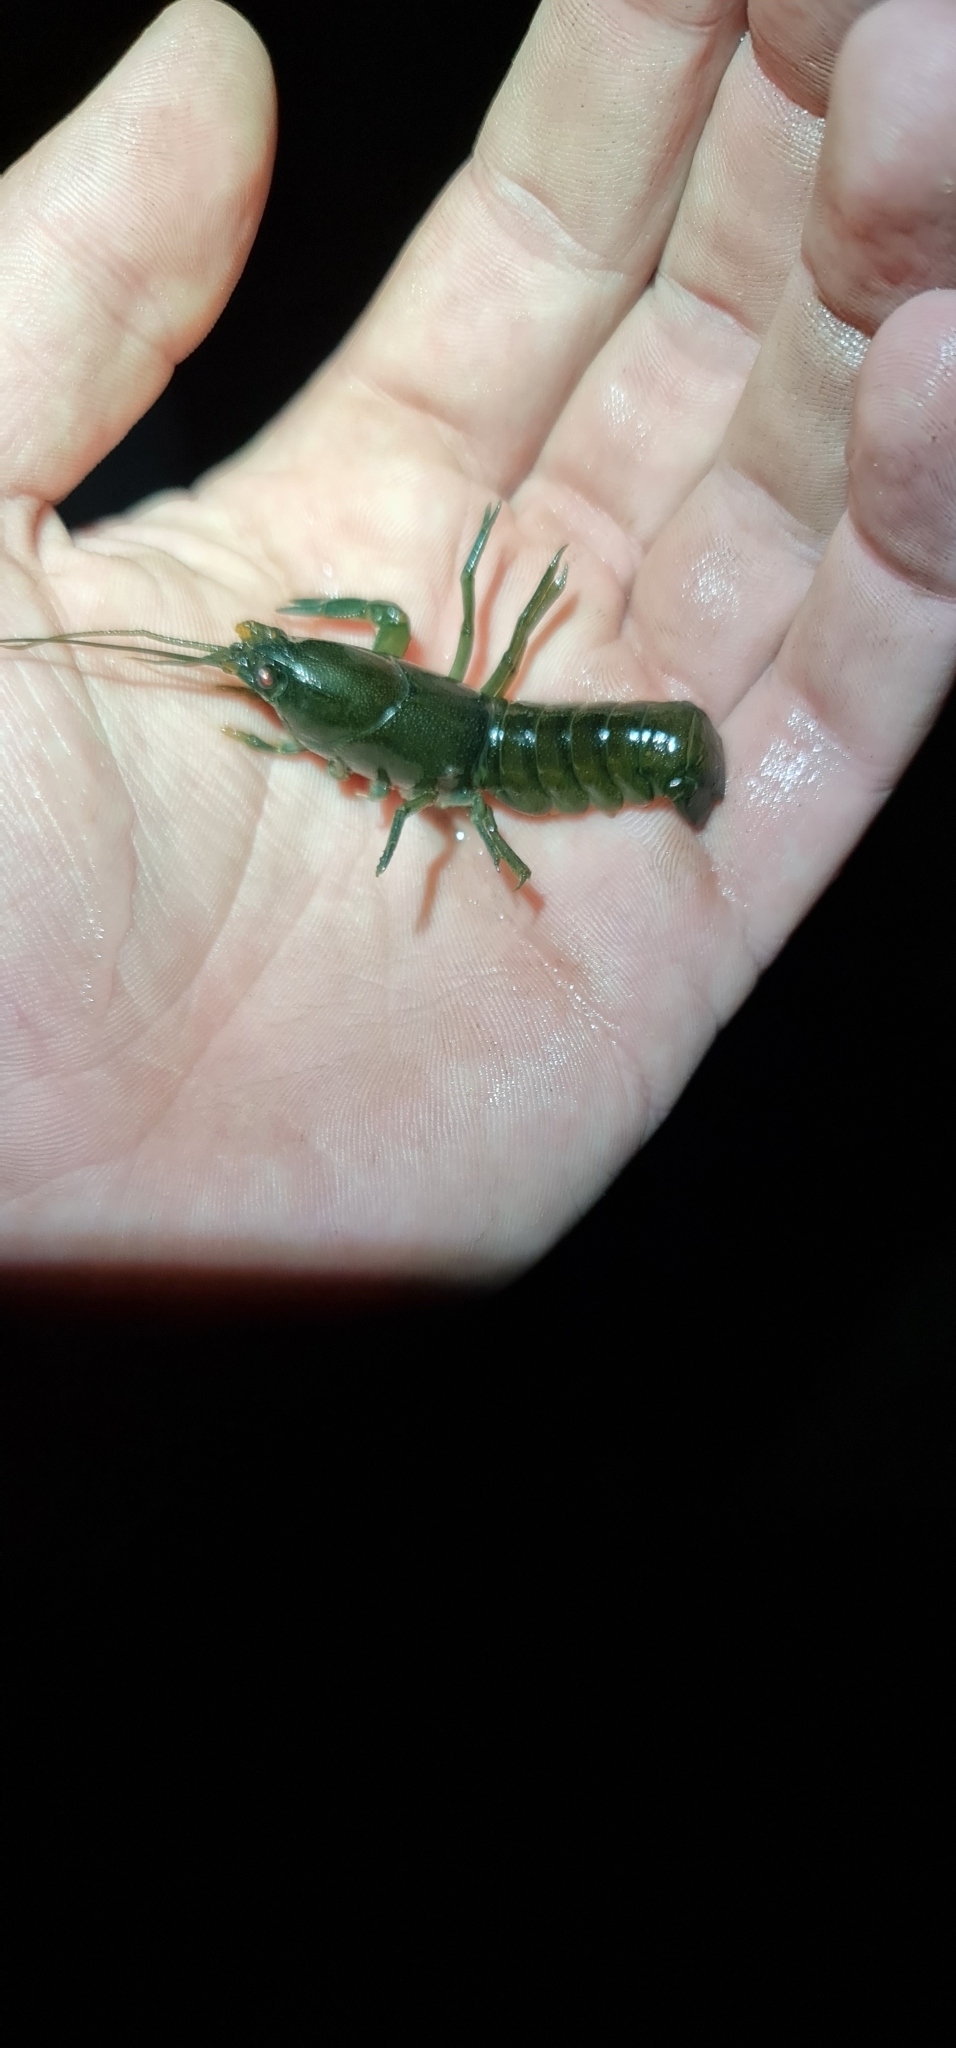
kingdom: Animalia
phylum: Arthropoda
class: Malacostraca
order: Decapoda
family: Parastacidae
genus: Cherax
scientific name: Cherax destructor
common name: Yabby
